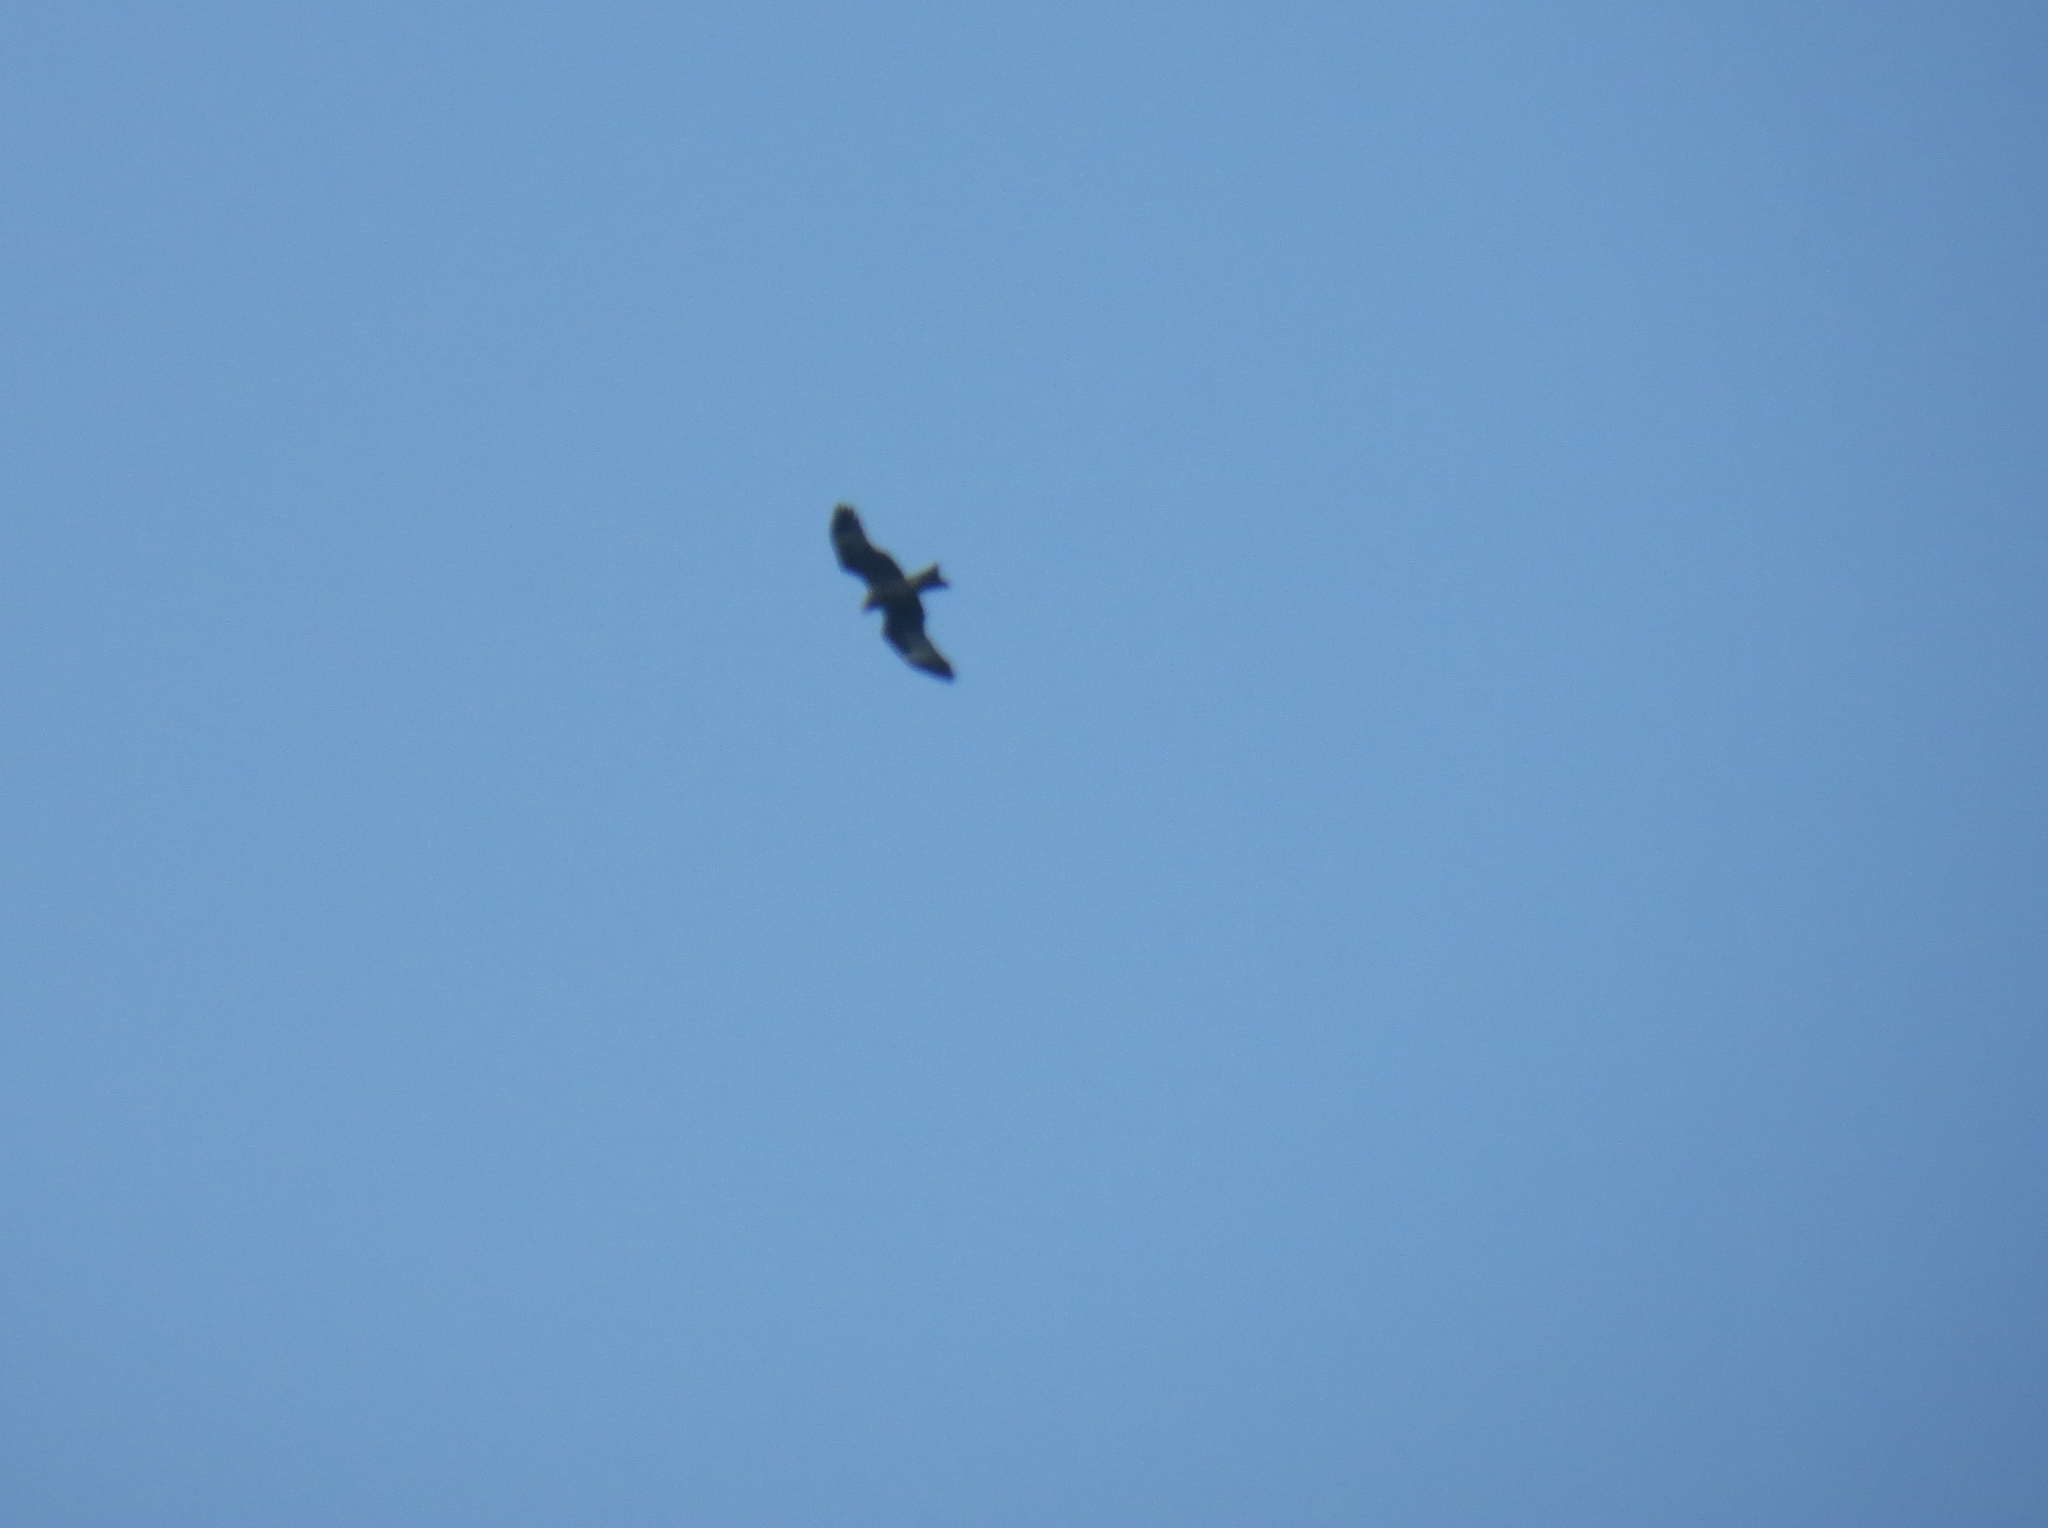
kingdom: Animalia
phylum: Chordata
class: Aves
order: Accipitriformes
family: Accipitridae
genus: Milvus
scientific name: Milvus migrans
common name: Black kite
